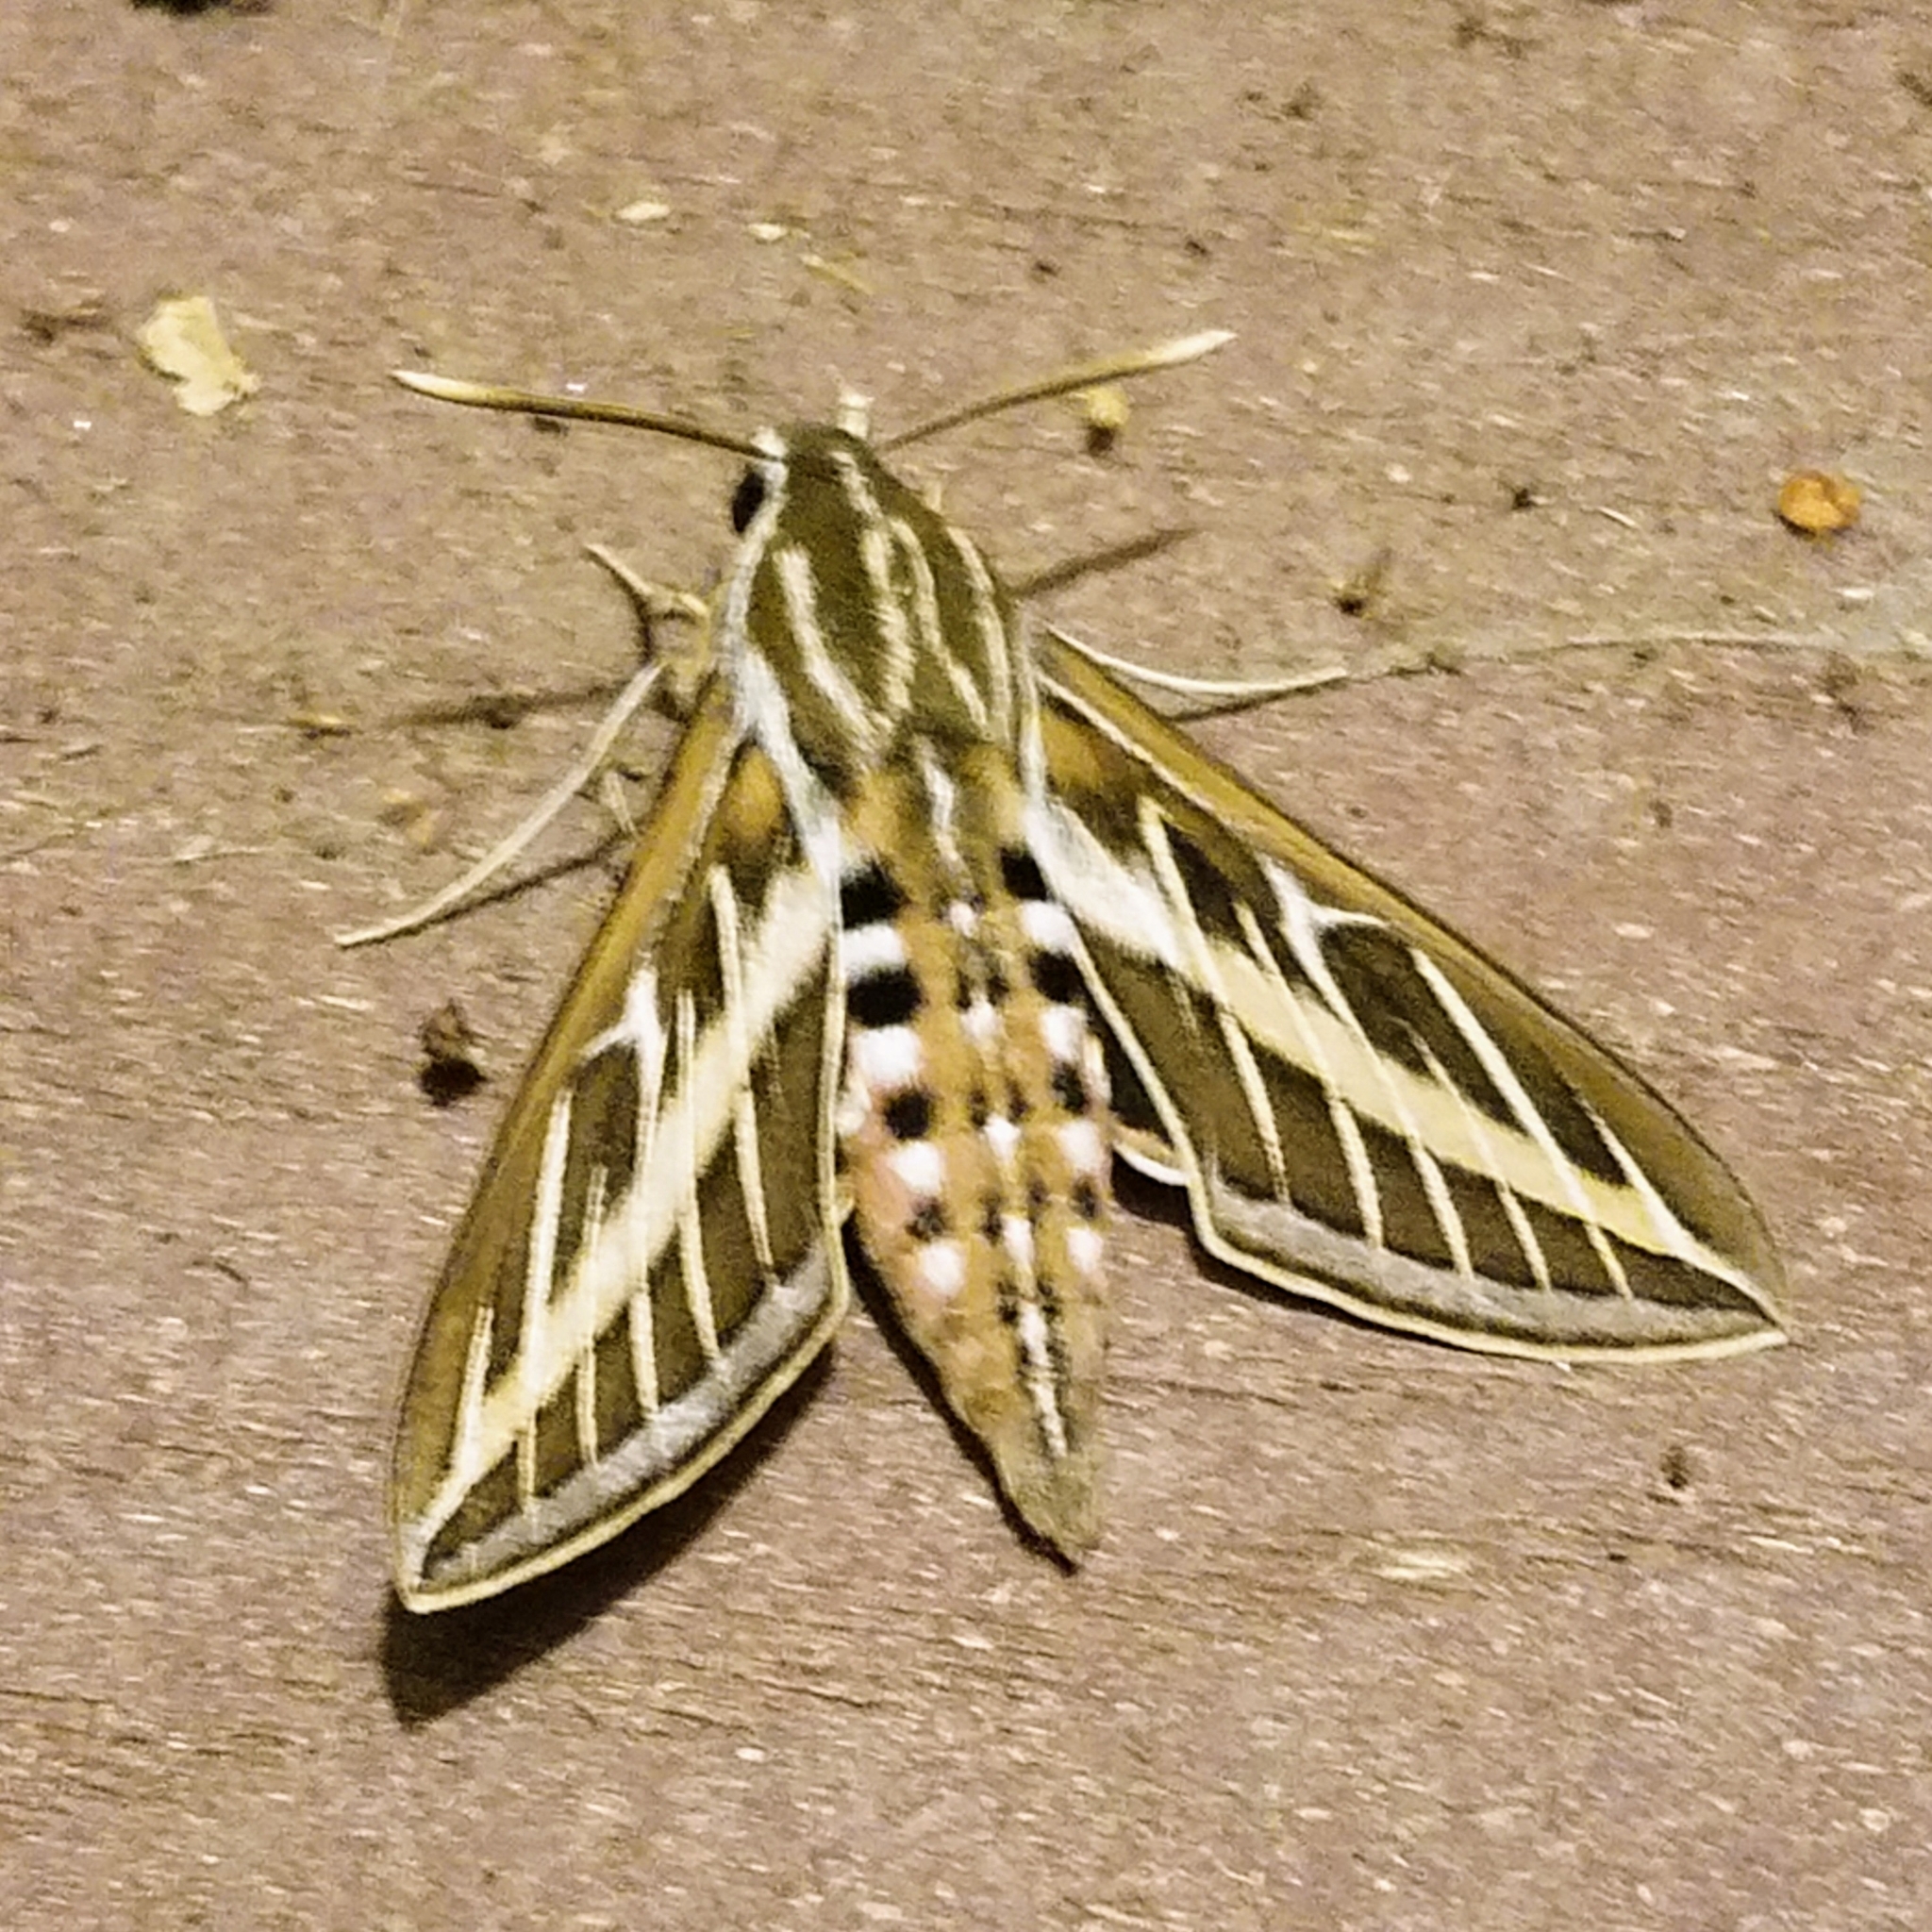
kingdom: Animalia
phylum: Arthropoda
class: Insecta
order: Lepidoptera
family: Sphingidae
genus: Hyles
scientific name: Hyles lineata
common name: White-lined sphinx
